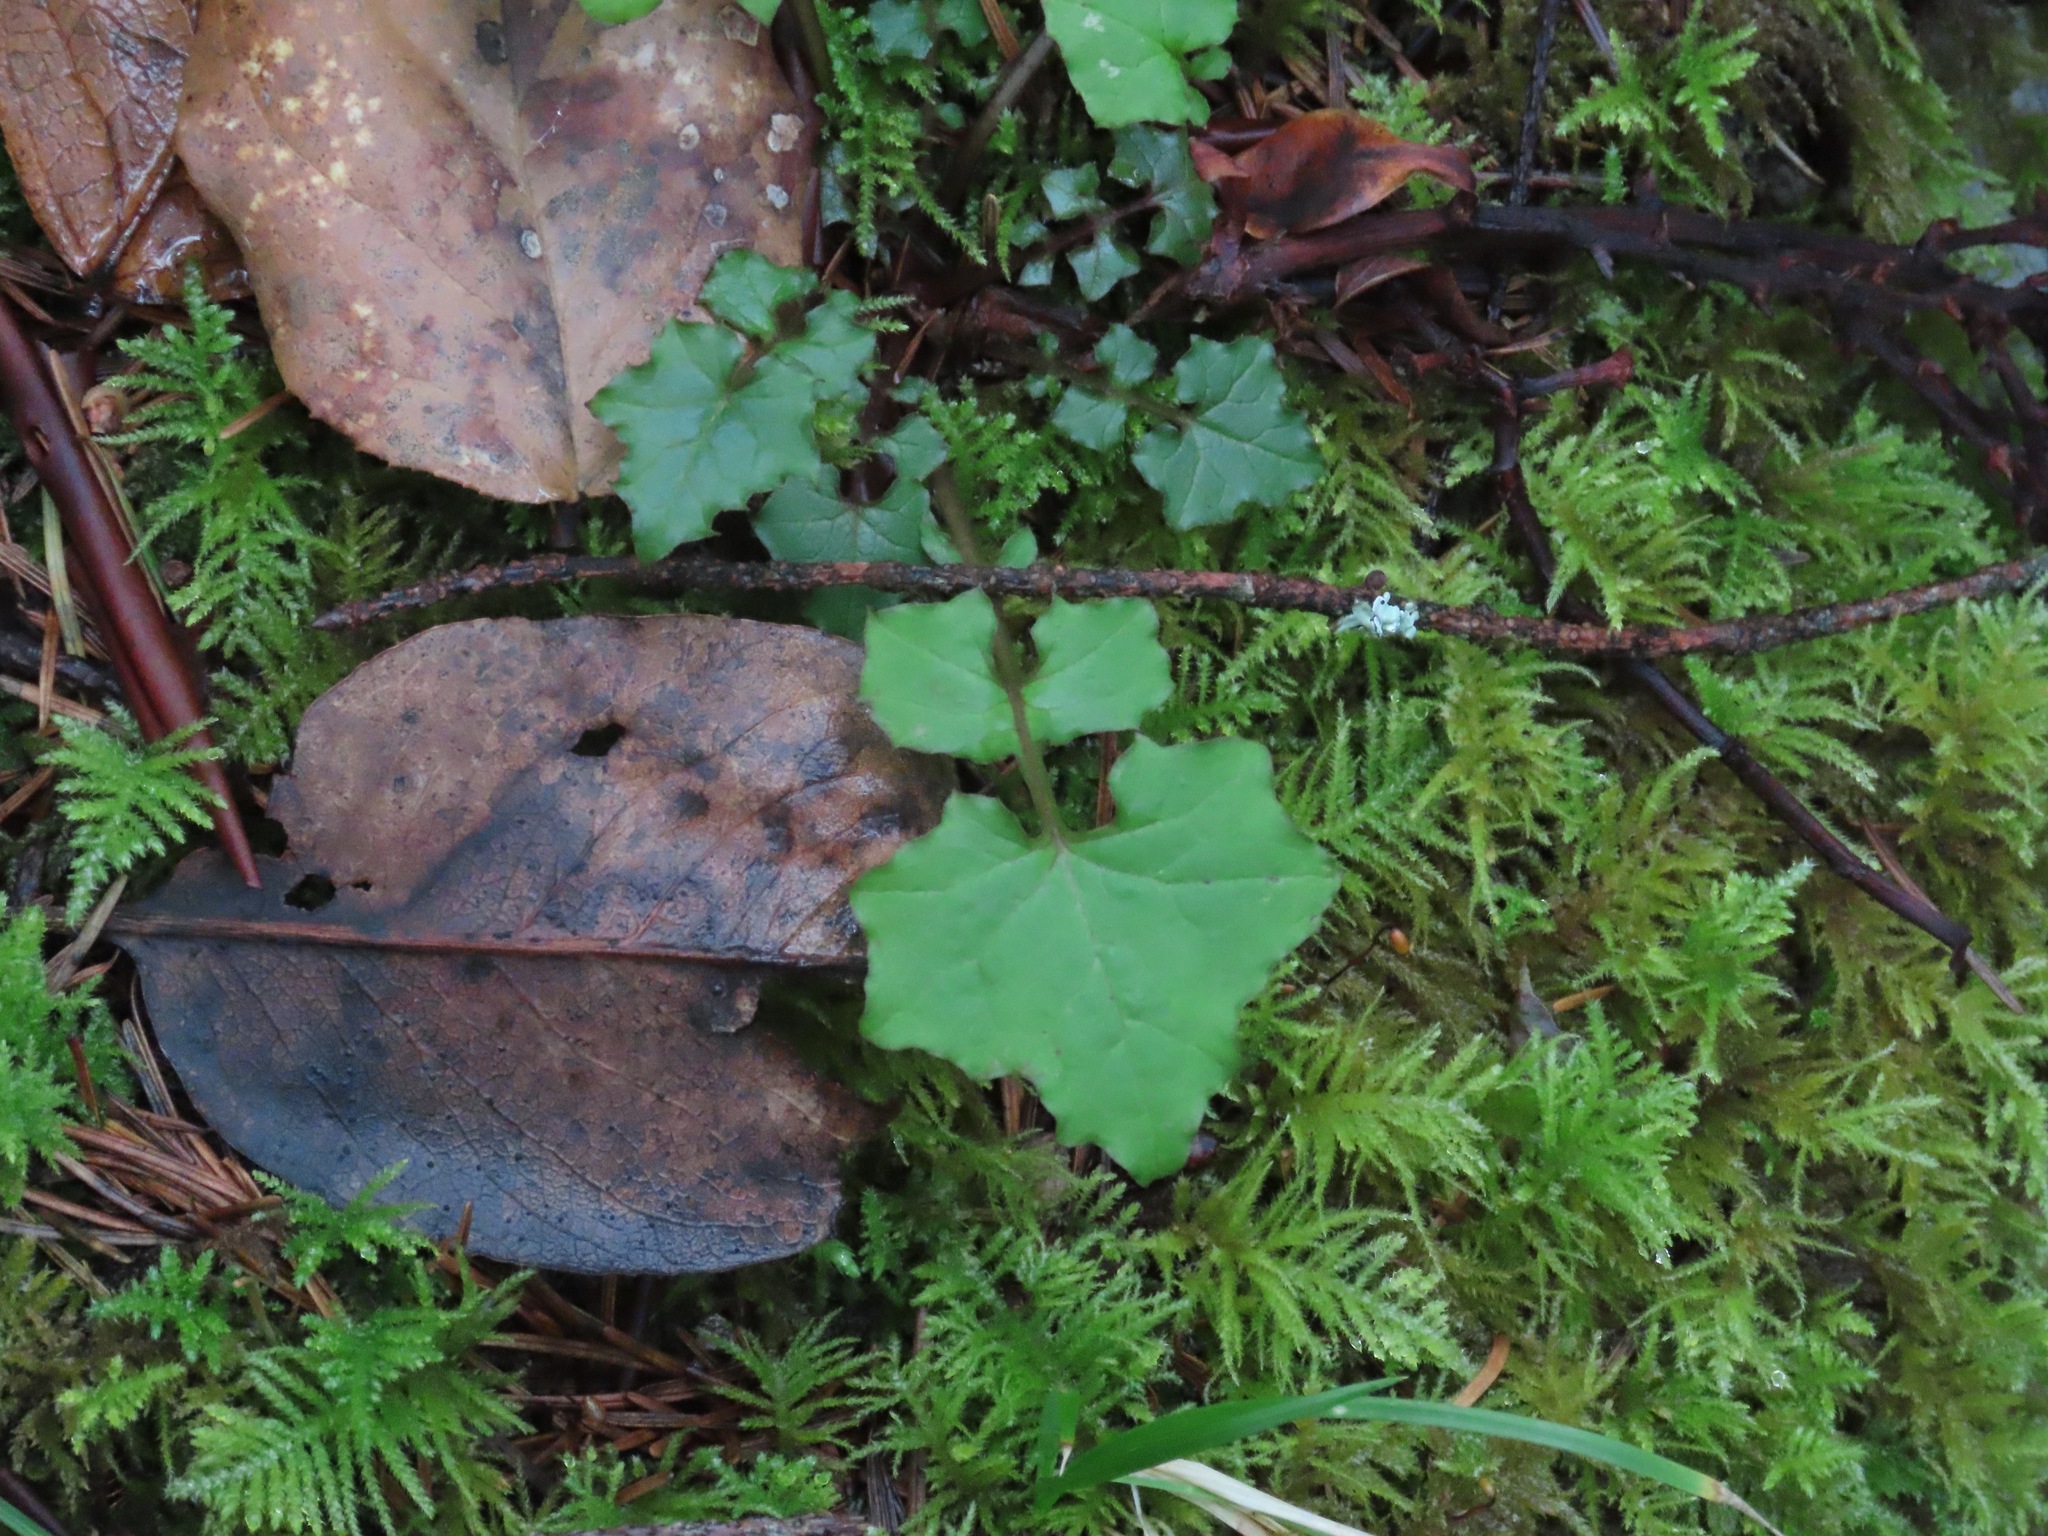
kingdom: Plantae
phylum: Tracheophyta
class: Magnoliopsida
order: Asterales
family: Asteraceae
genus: Mycelis
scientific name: Mycelis muralis
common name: Wall lettuce
